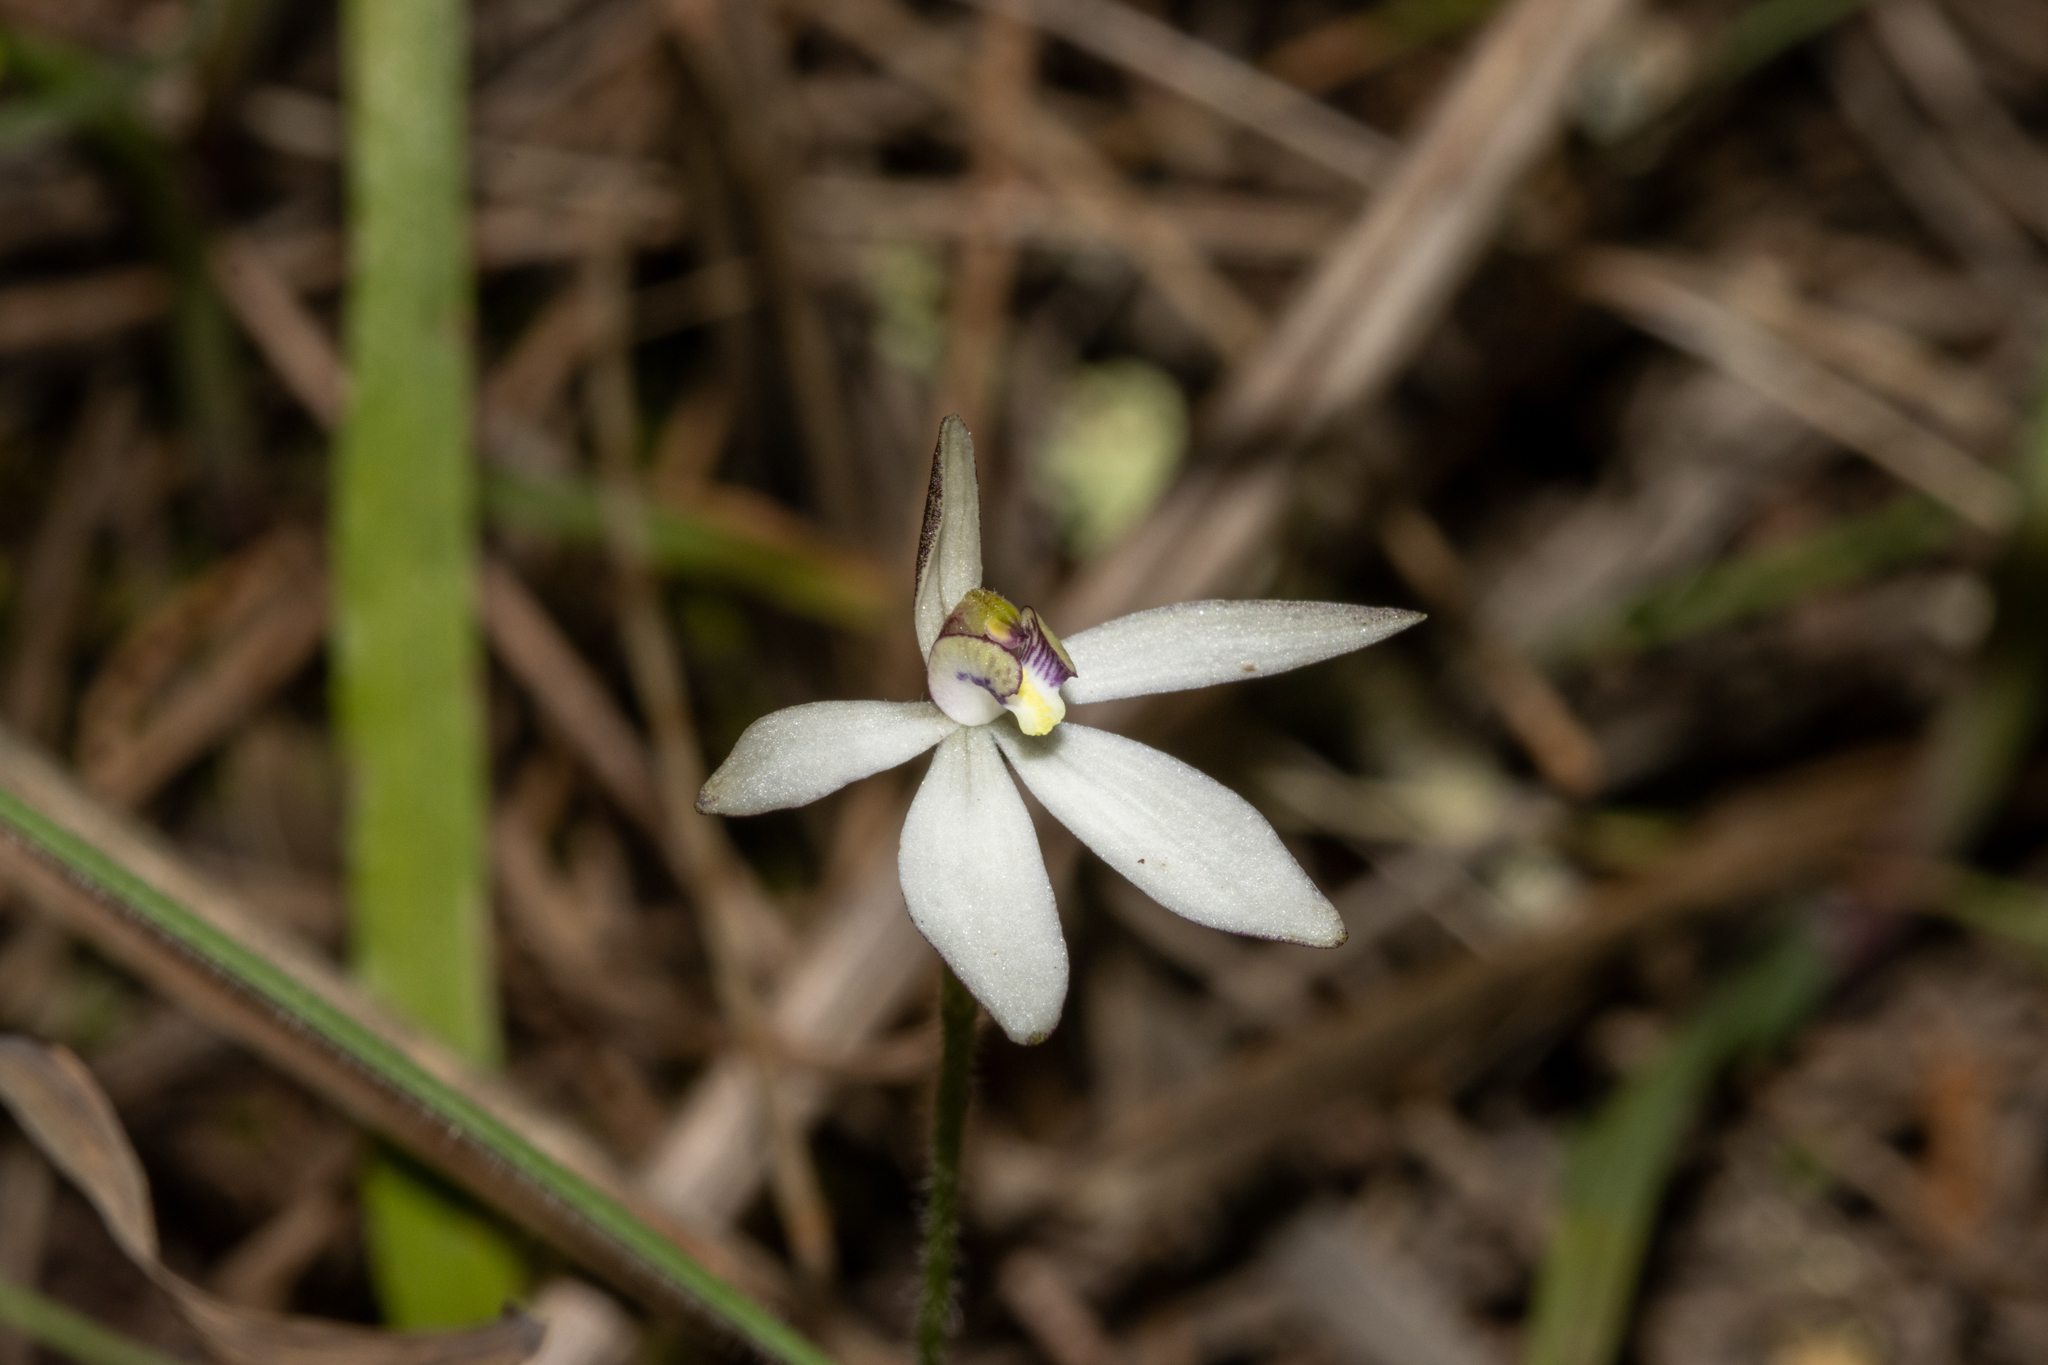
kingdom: Plantae
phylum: Tracheophyta
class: Liliopsida
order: Asparagales
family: Orchidaceae
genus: Caladenia
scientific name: Caladenia saccharata
